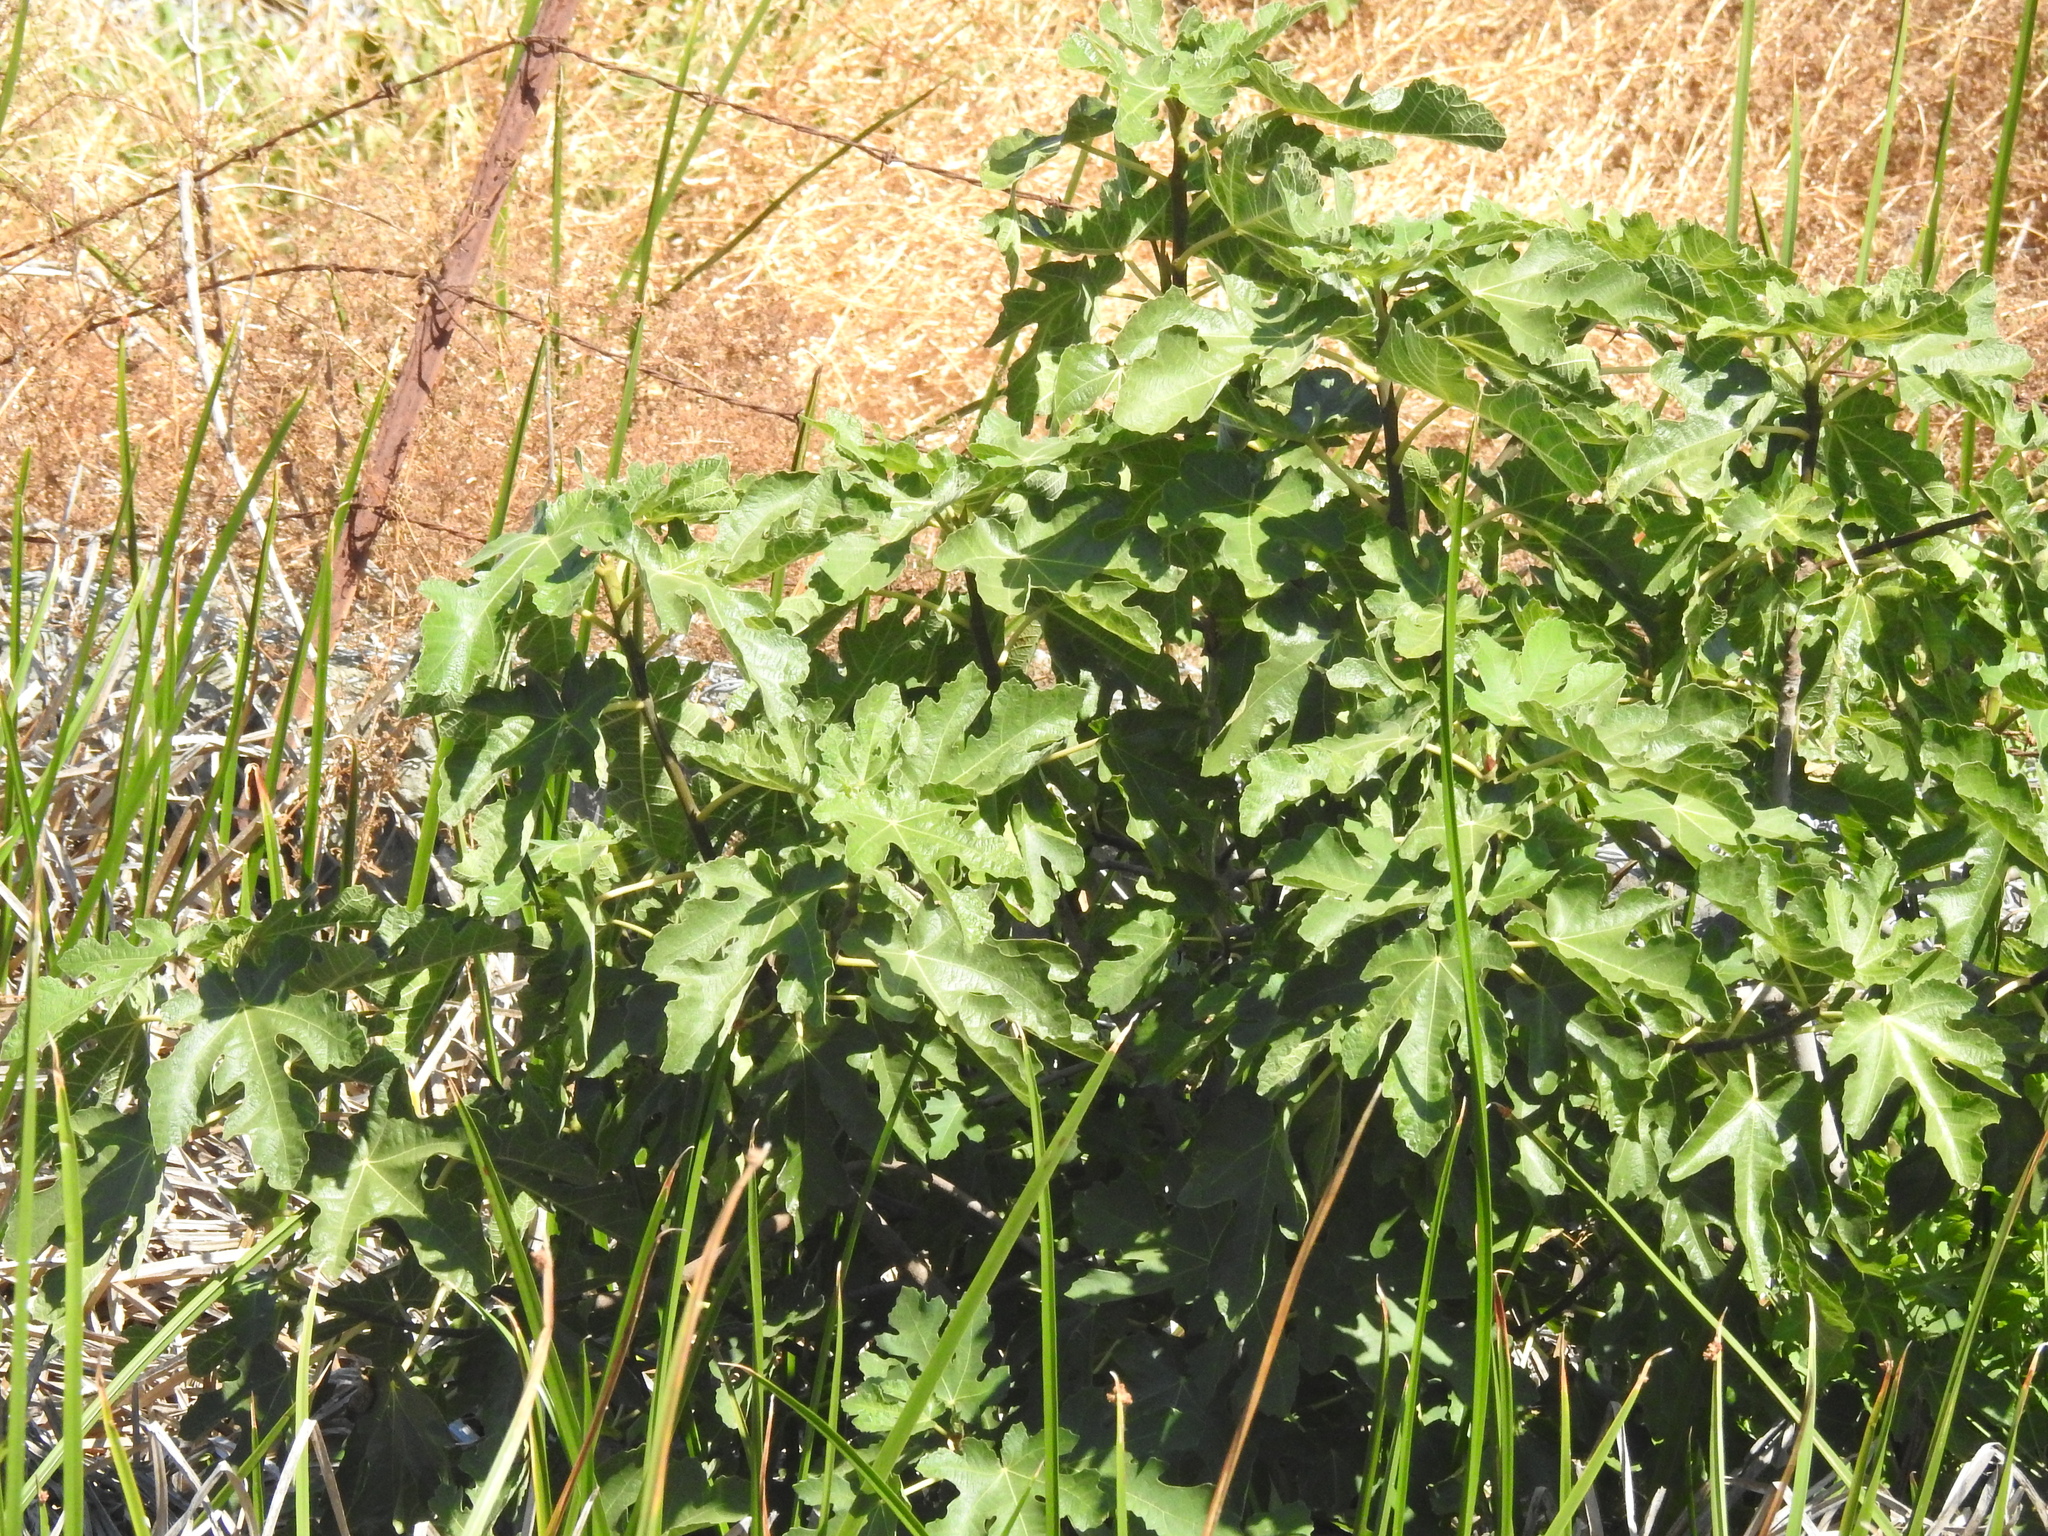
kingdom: Plantae
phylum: Tracheophyta
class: Magnoliopsida
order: Rosales
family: Moraceae
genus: Ficus
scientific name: Ficus carica
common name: Fig
